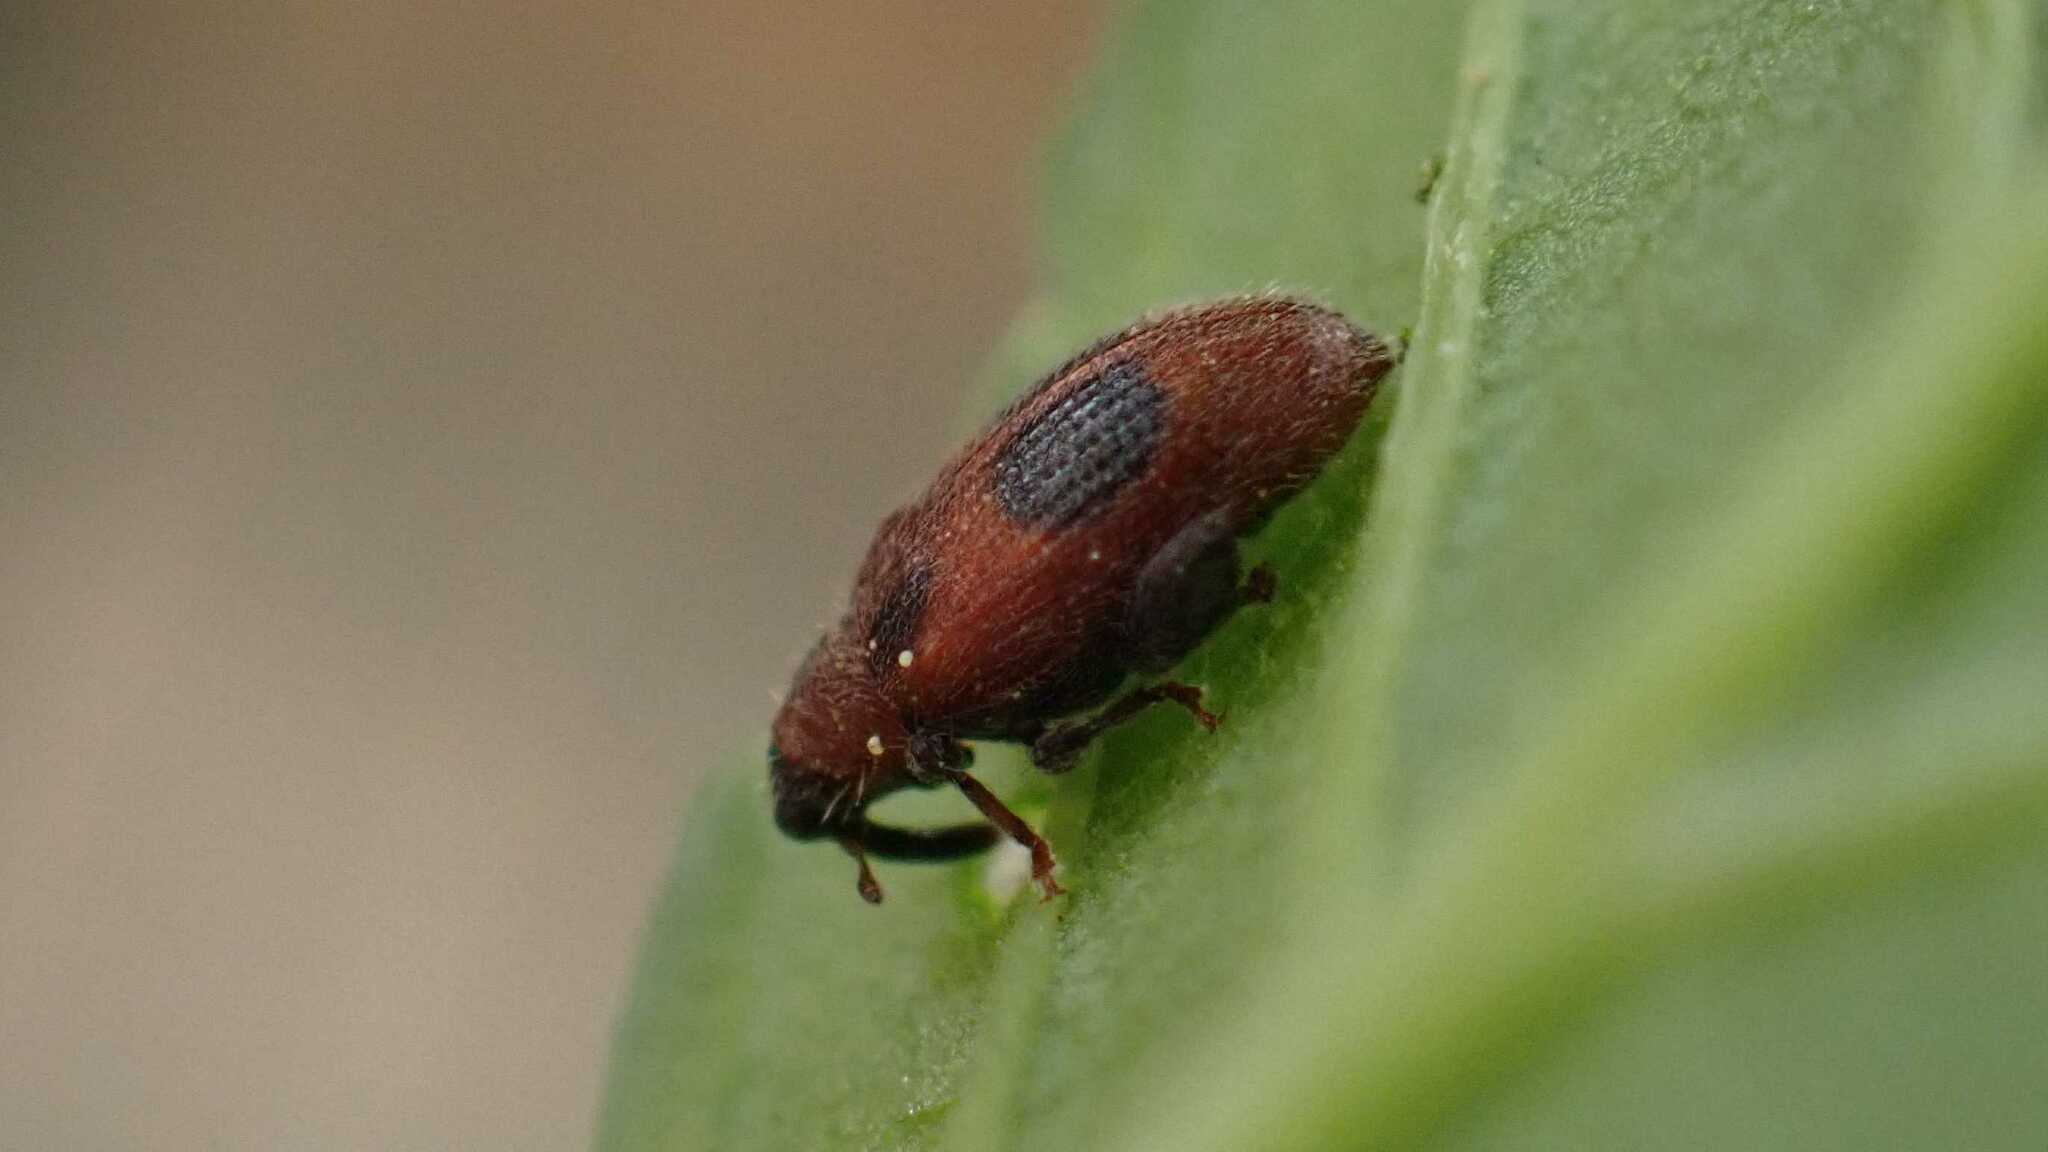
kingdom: Animalia
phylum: Arthropoda
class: Insecta
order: Coleoptera
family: Curculionidae
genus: Orchestes
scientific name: Orchestes alni
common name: Elm flea weevil
